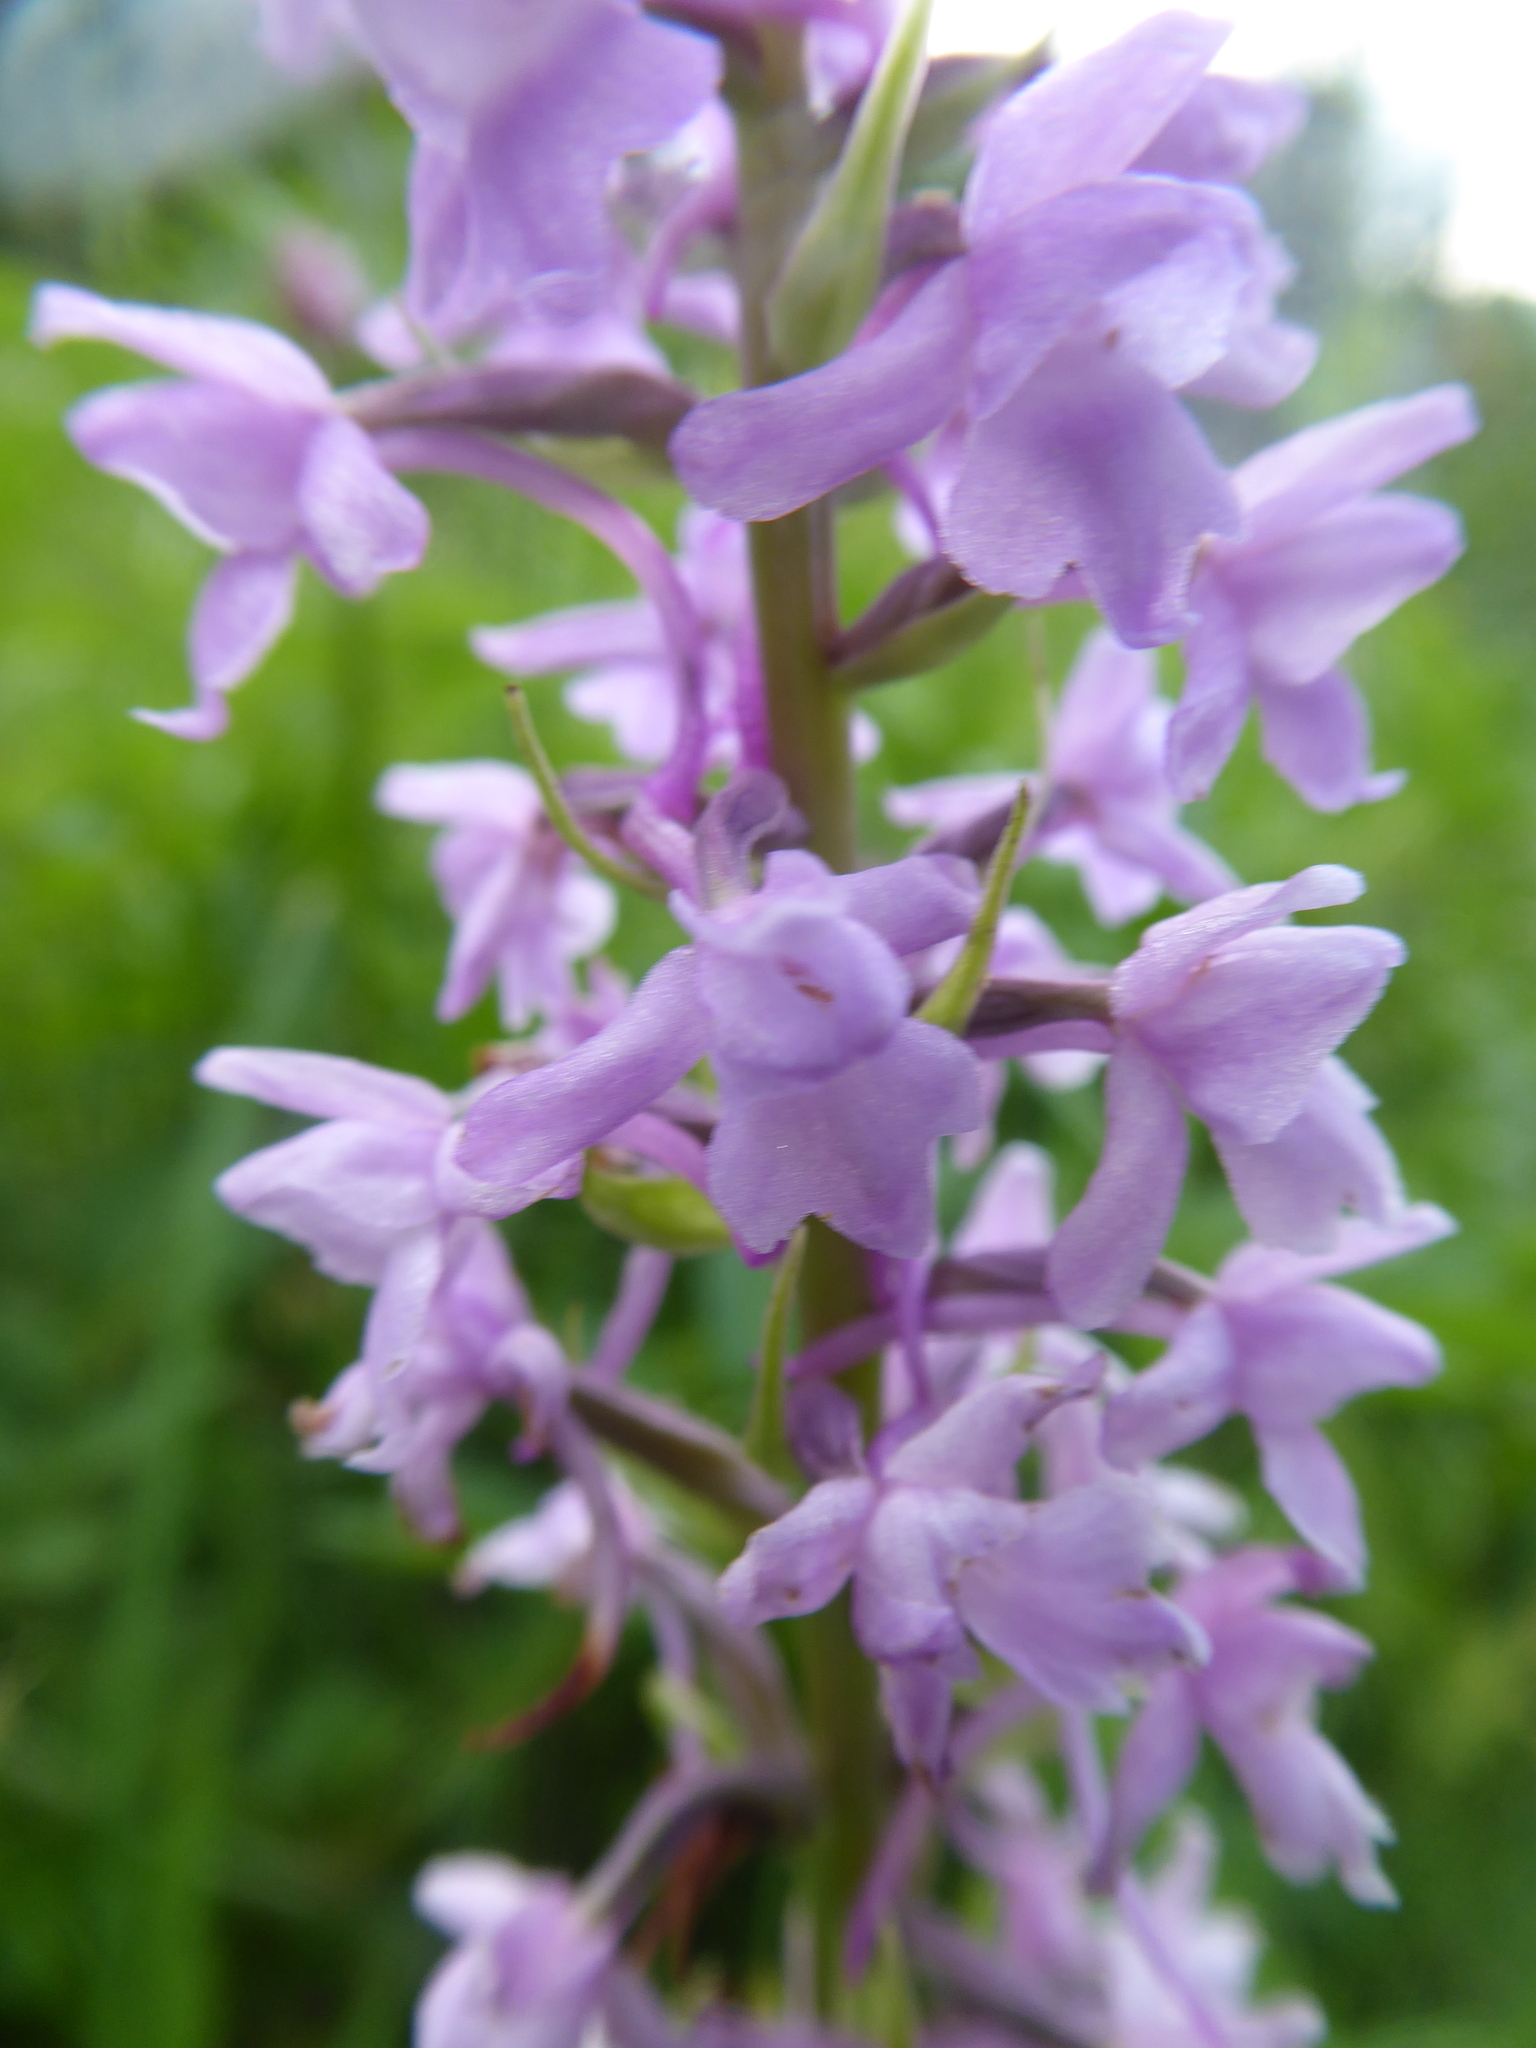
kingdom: Plantae
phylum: Tracheophyta
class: Liliopsida
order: Asparagales
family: Orchidaceae
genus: Gymnadenia
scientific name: Gymnadenia conopsea
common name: Fragrant orchid
